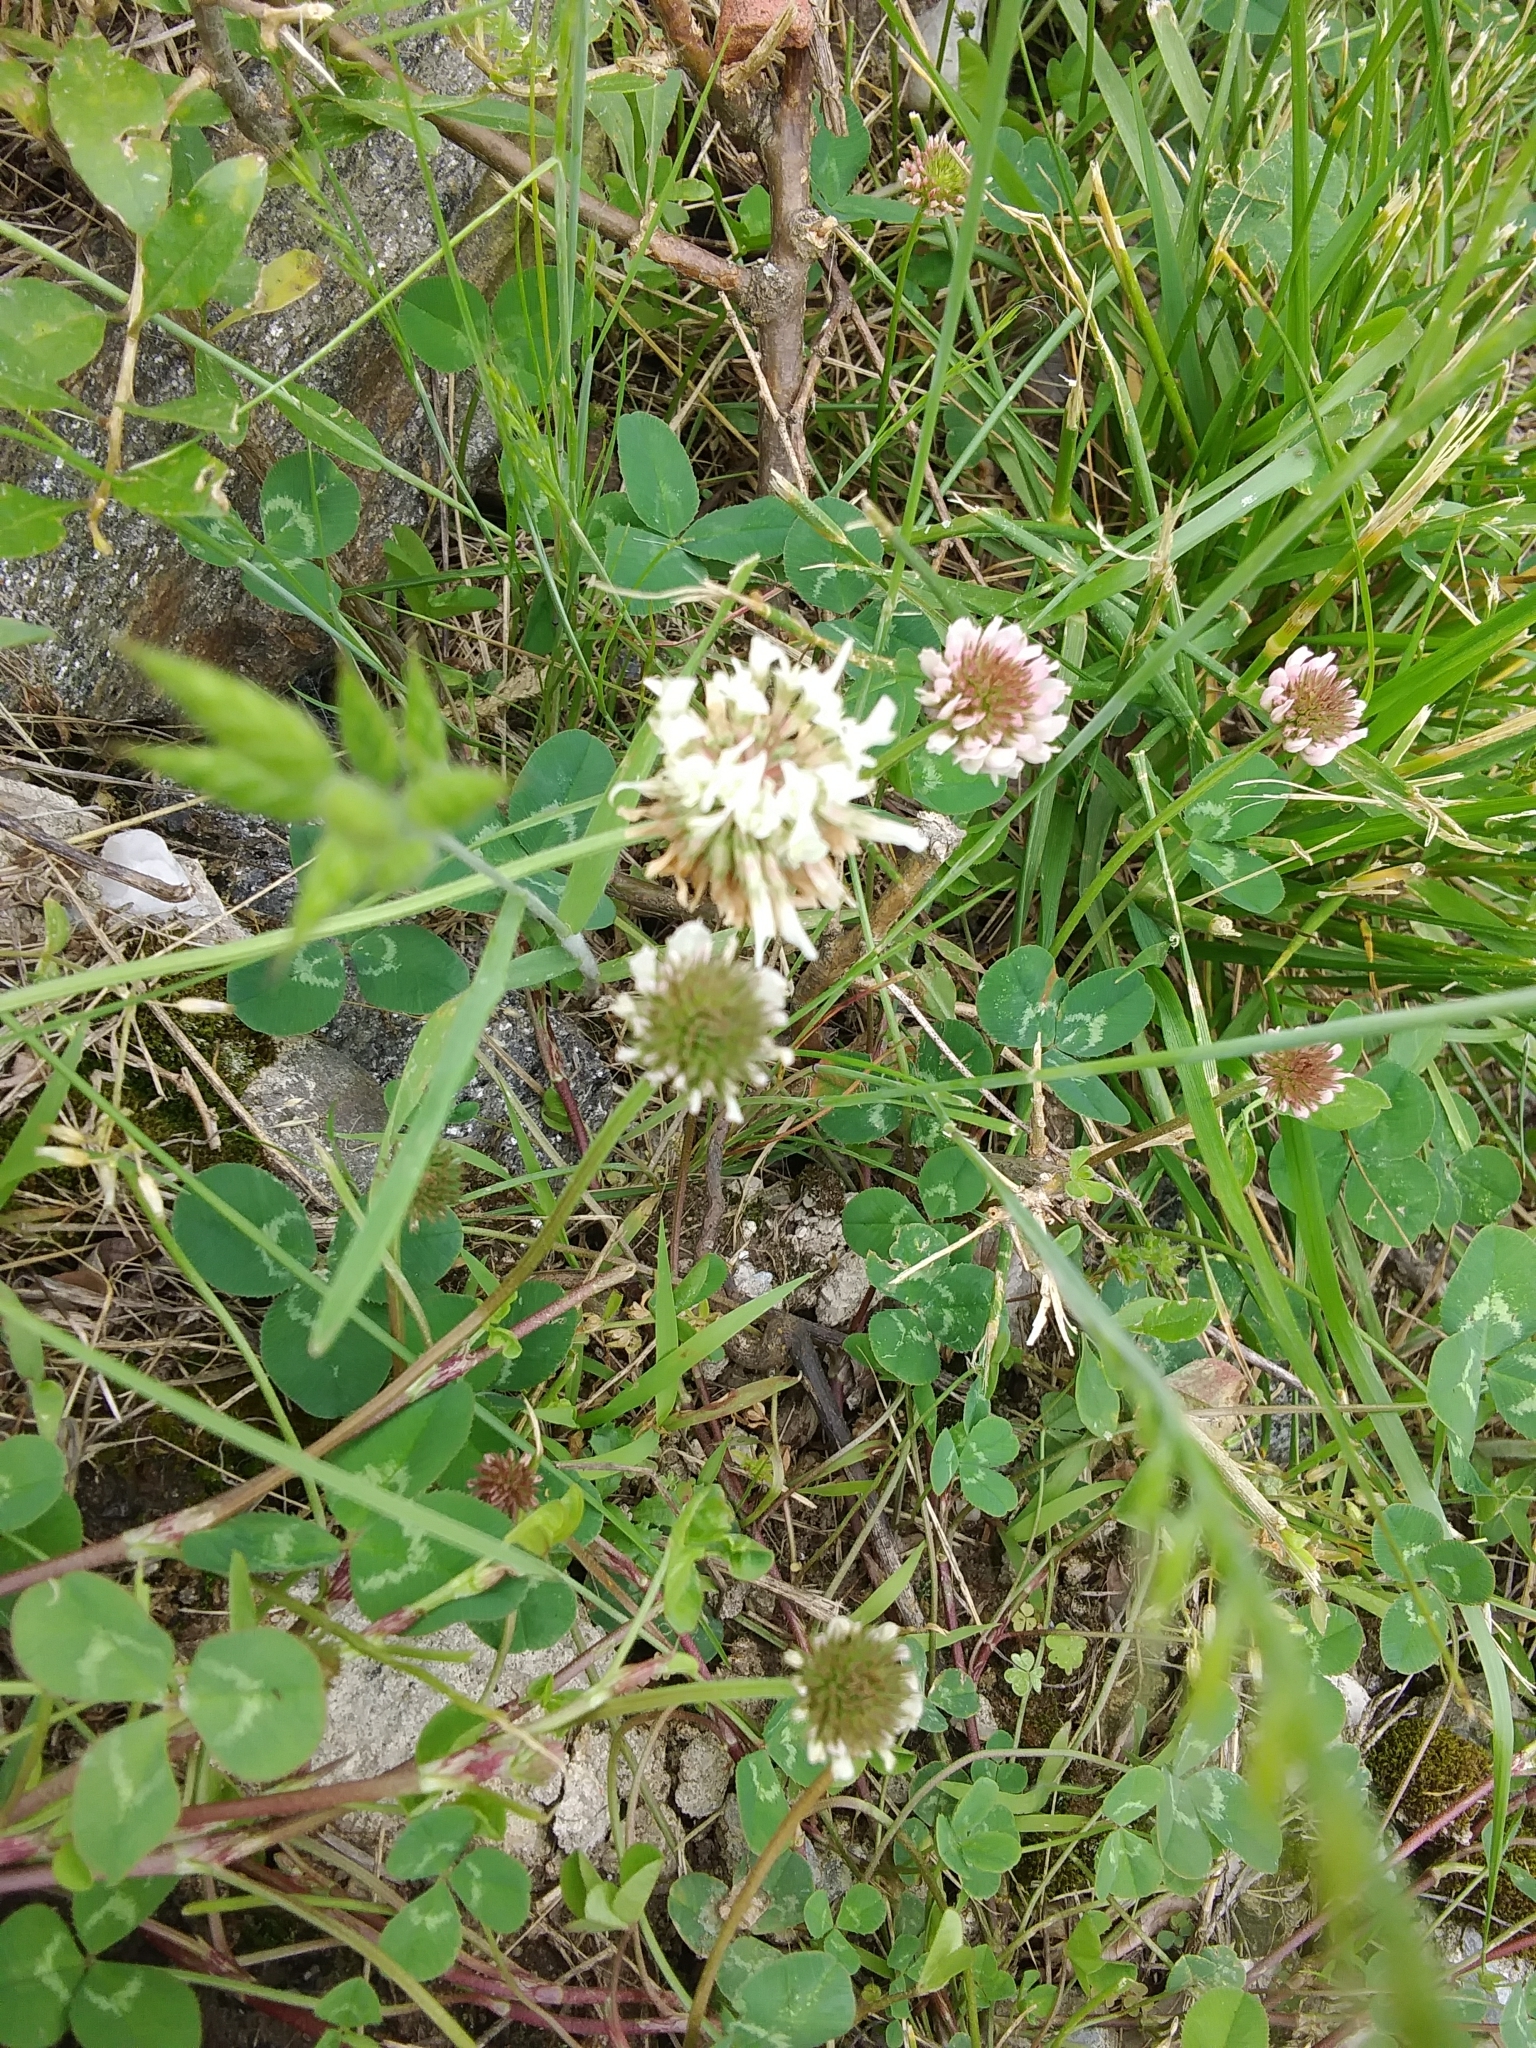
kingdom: Plantae
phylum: Tracheophyta
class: Magnoliopsida
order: Fabales
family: Fabaceae
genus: Trifolium
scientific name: Trifolium repens
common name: White clover
